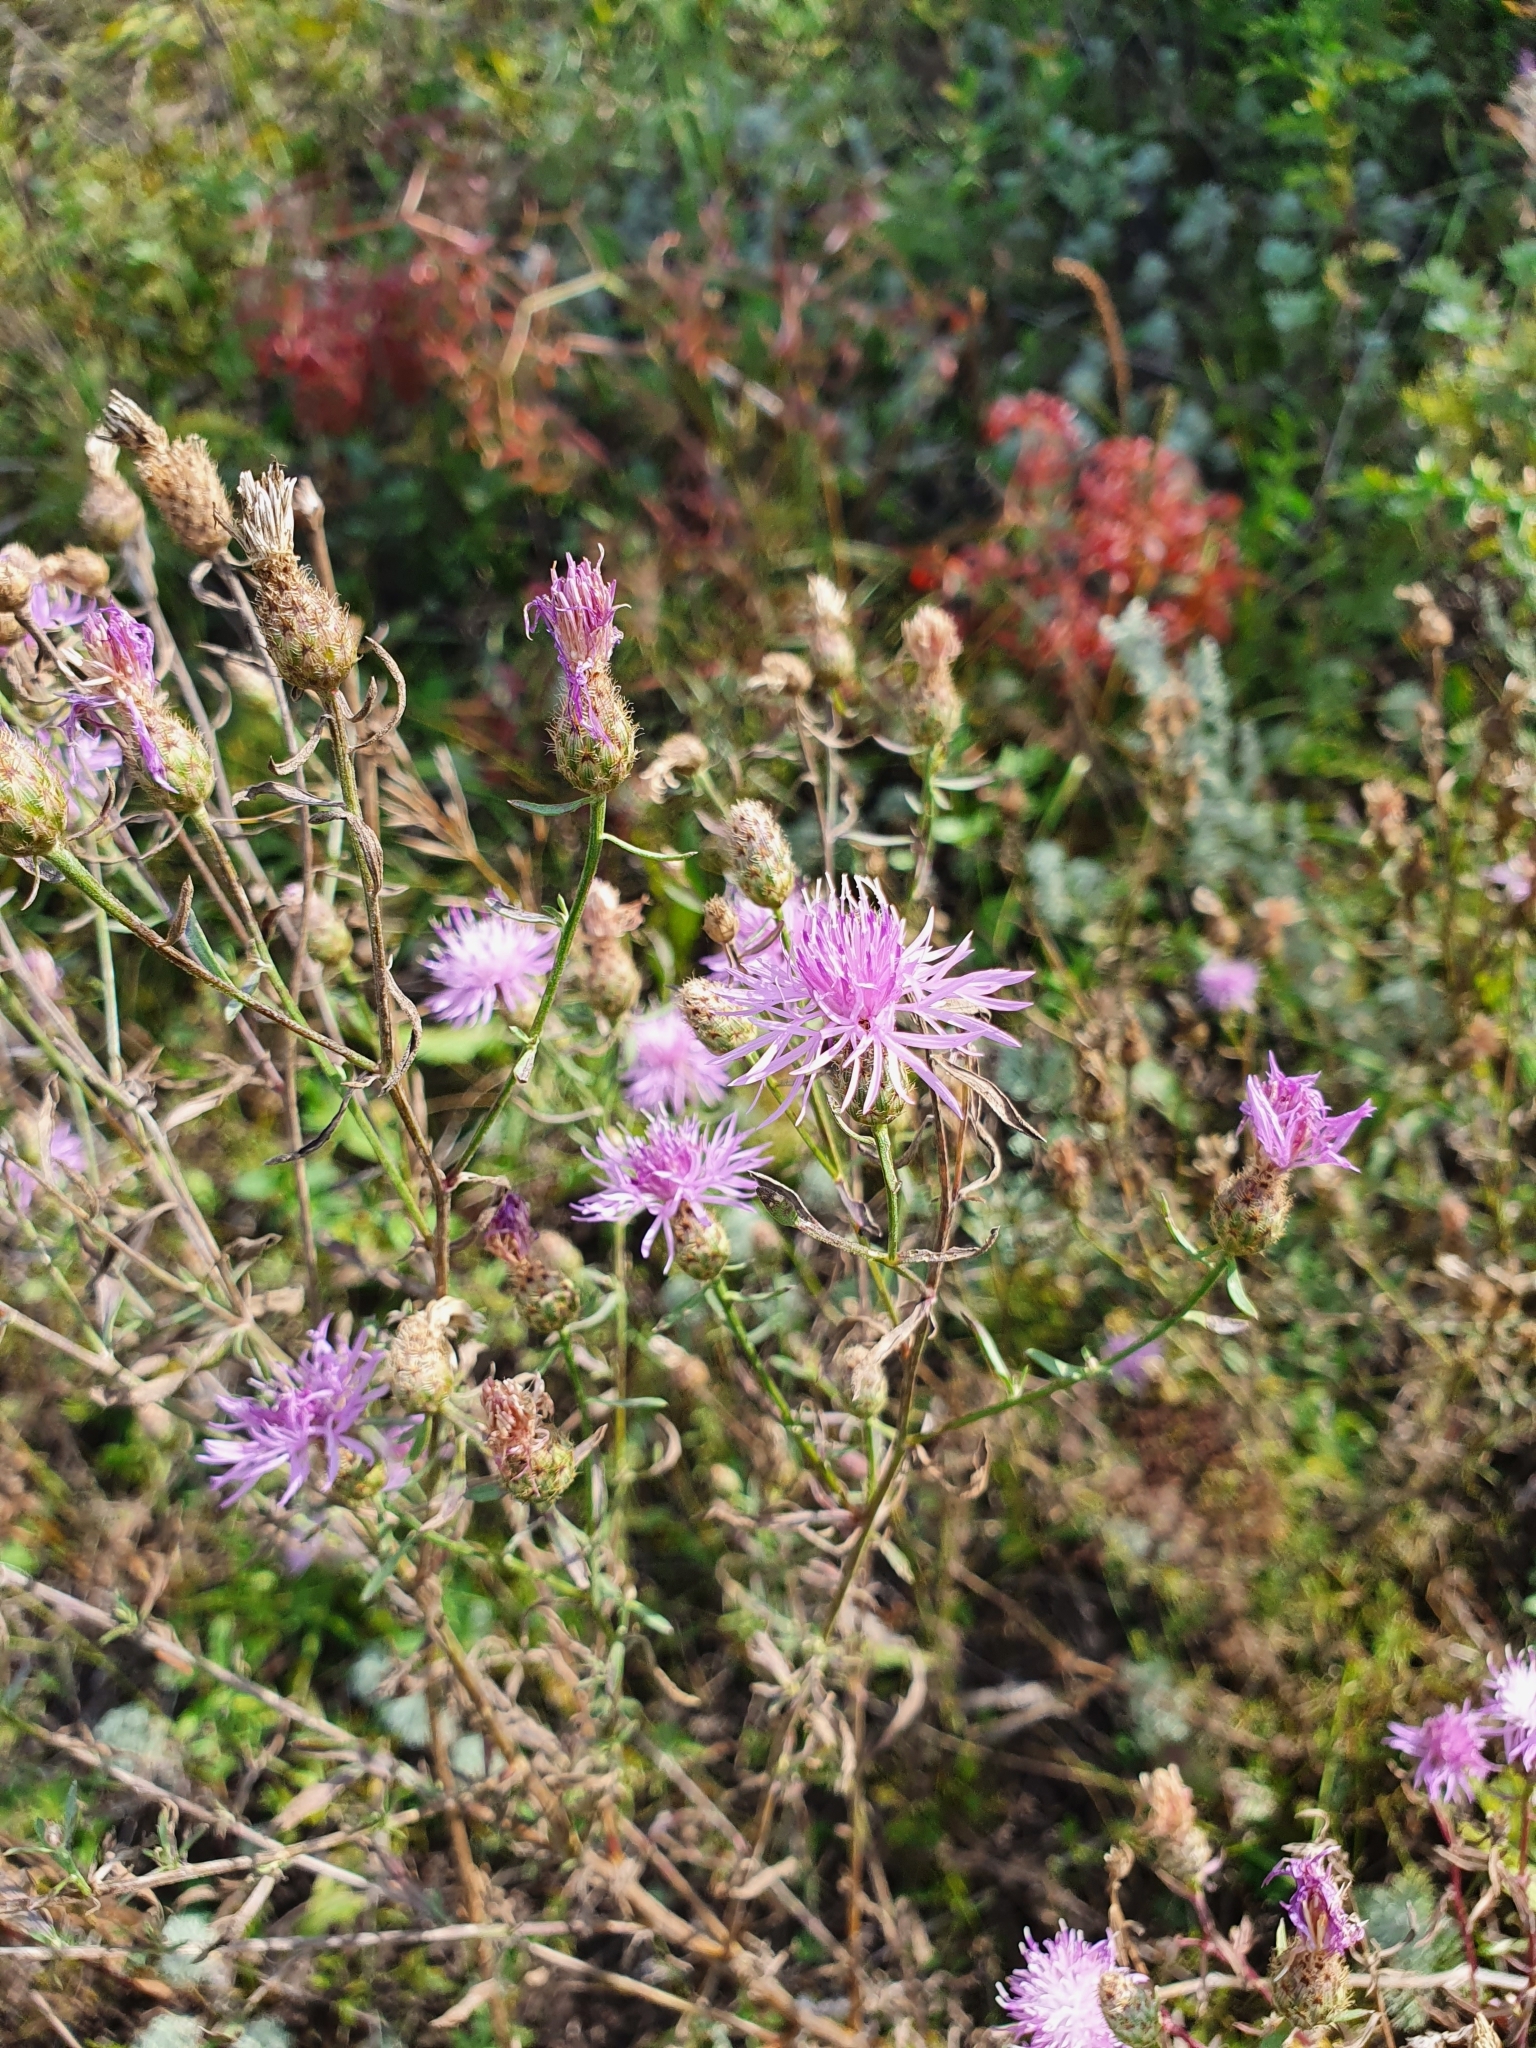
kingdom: Plantae
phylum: Tracheophyta
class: Magnoliopsida
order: Asterales
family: Asteraceae
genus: Centaurea
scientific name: Centaurea stoebe
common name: Spotted knapweed
